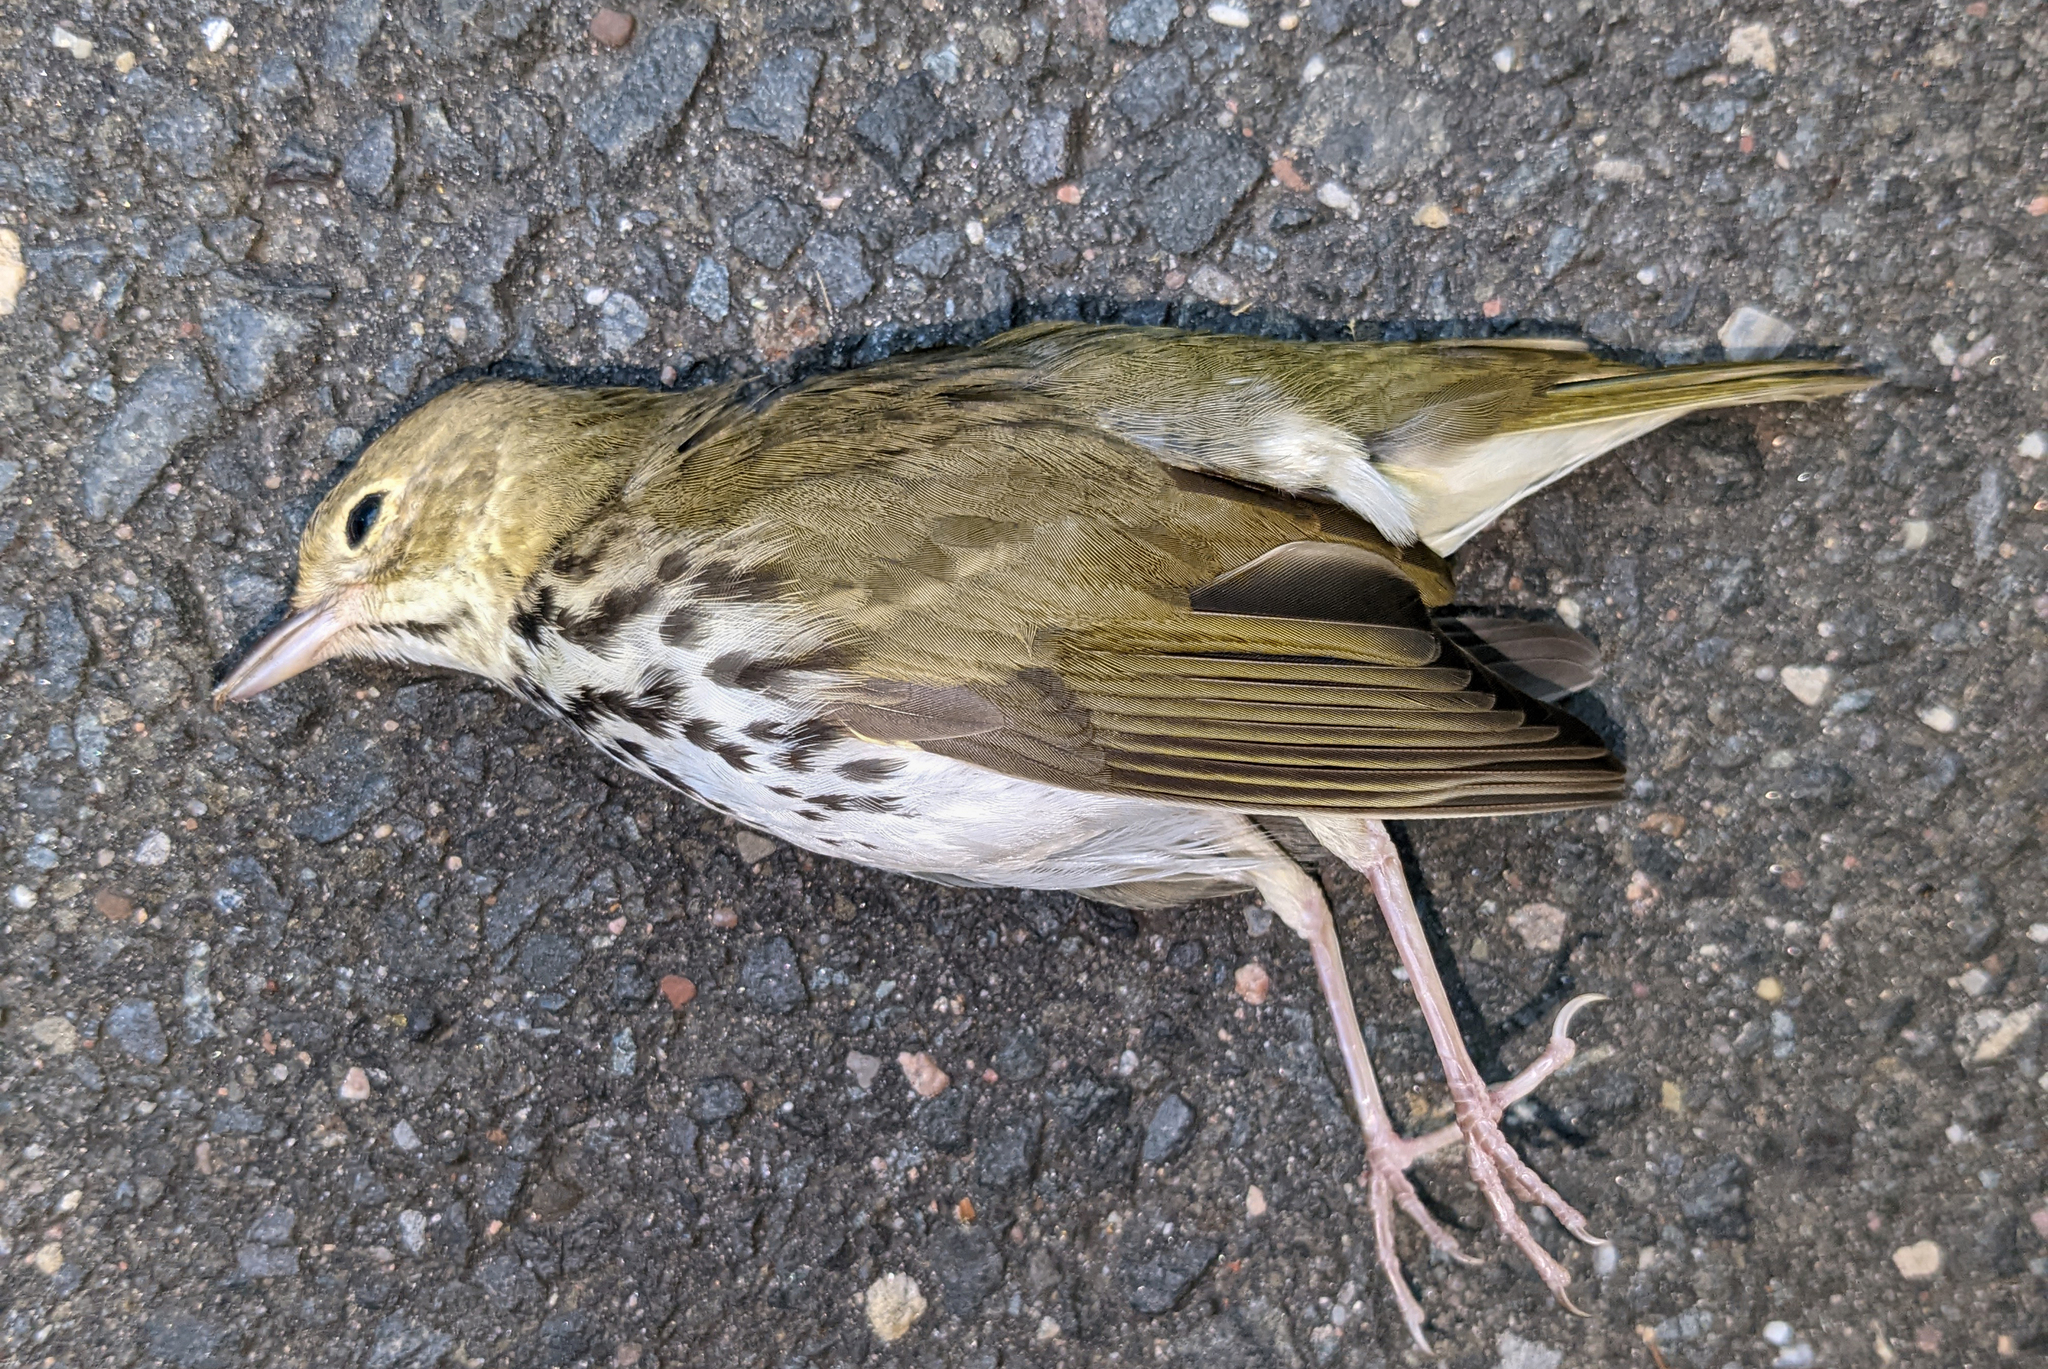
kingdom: Animalia
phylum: Chordata
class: Aves
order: Passeriformes
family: Parulidae
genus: Seiurus
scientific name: Seiurus aurocapilla
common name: Ovenbird
